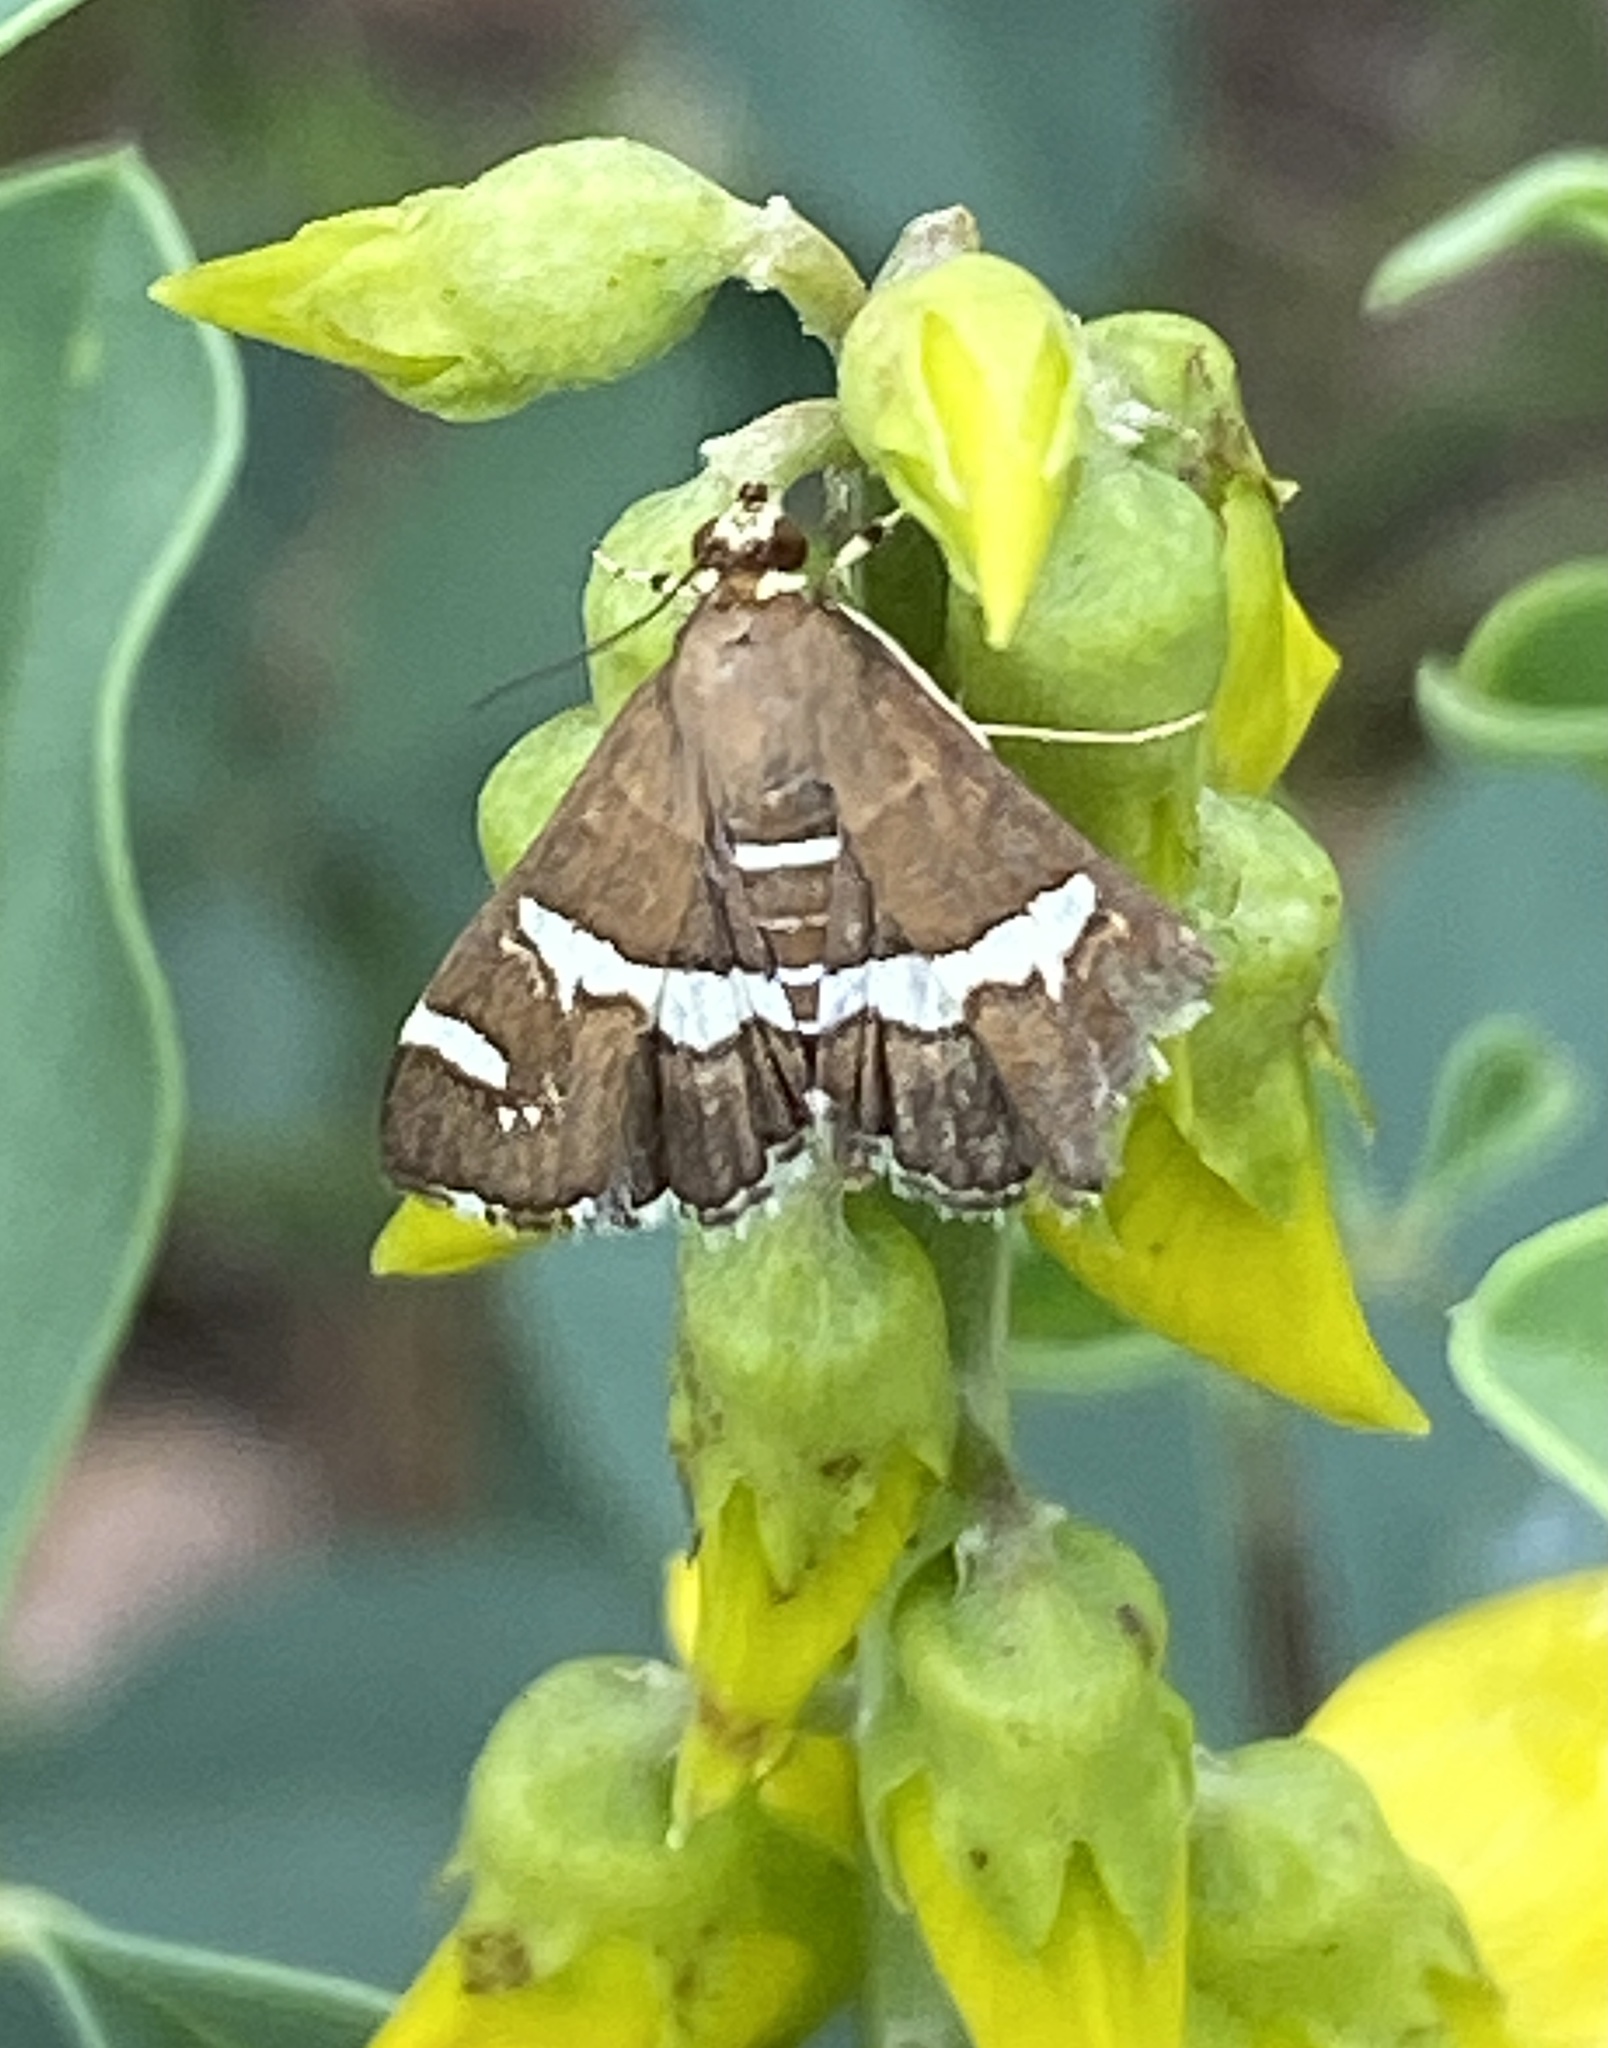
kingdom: Animalia
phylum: Arthropoda
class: Insecta
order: Lepidoptera
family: Crambidae
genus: Spoladea
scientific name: Spoladea recurvalis
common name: Beet webworm moth
